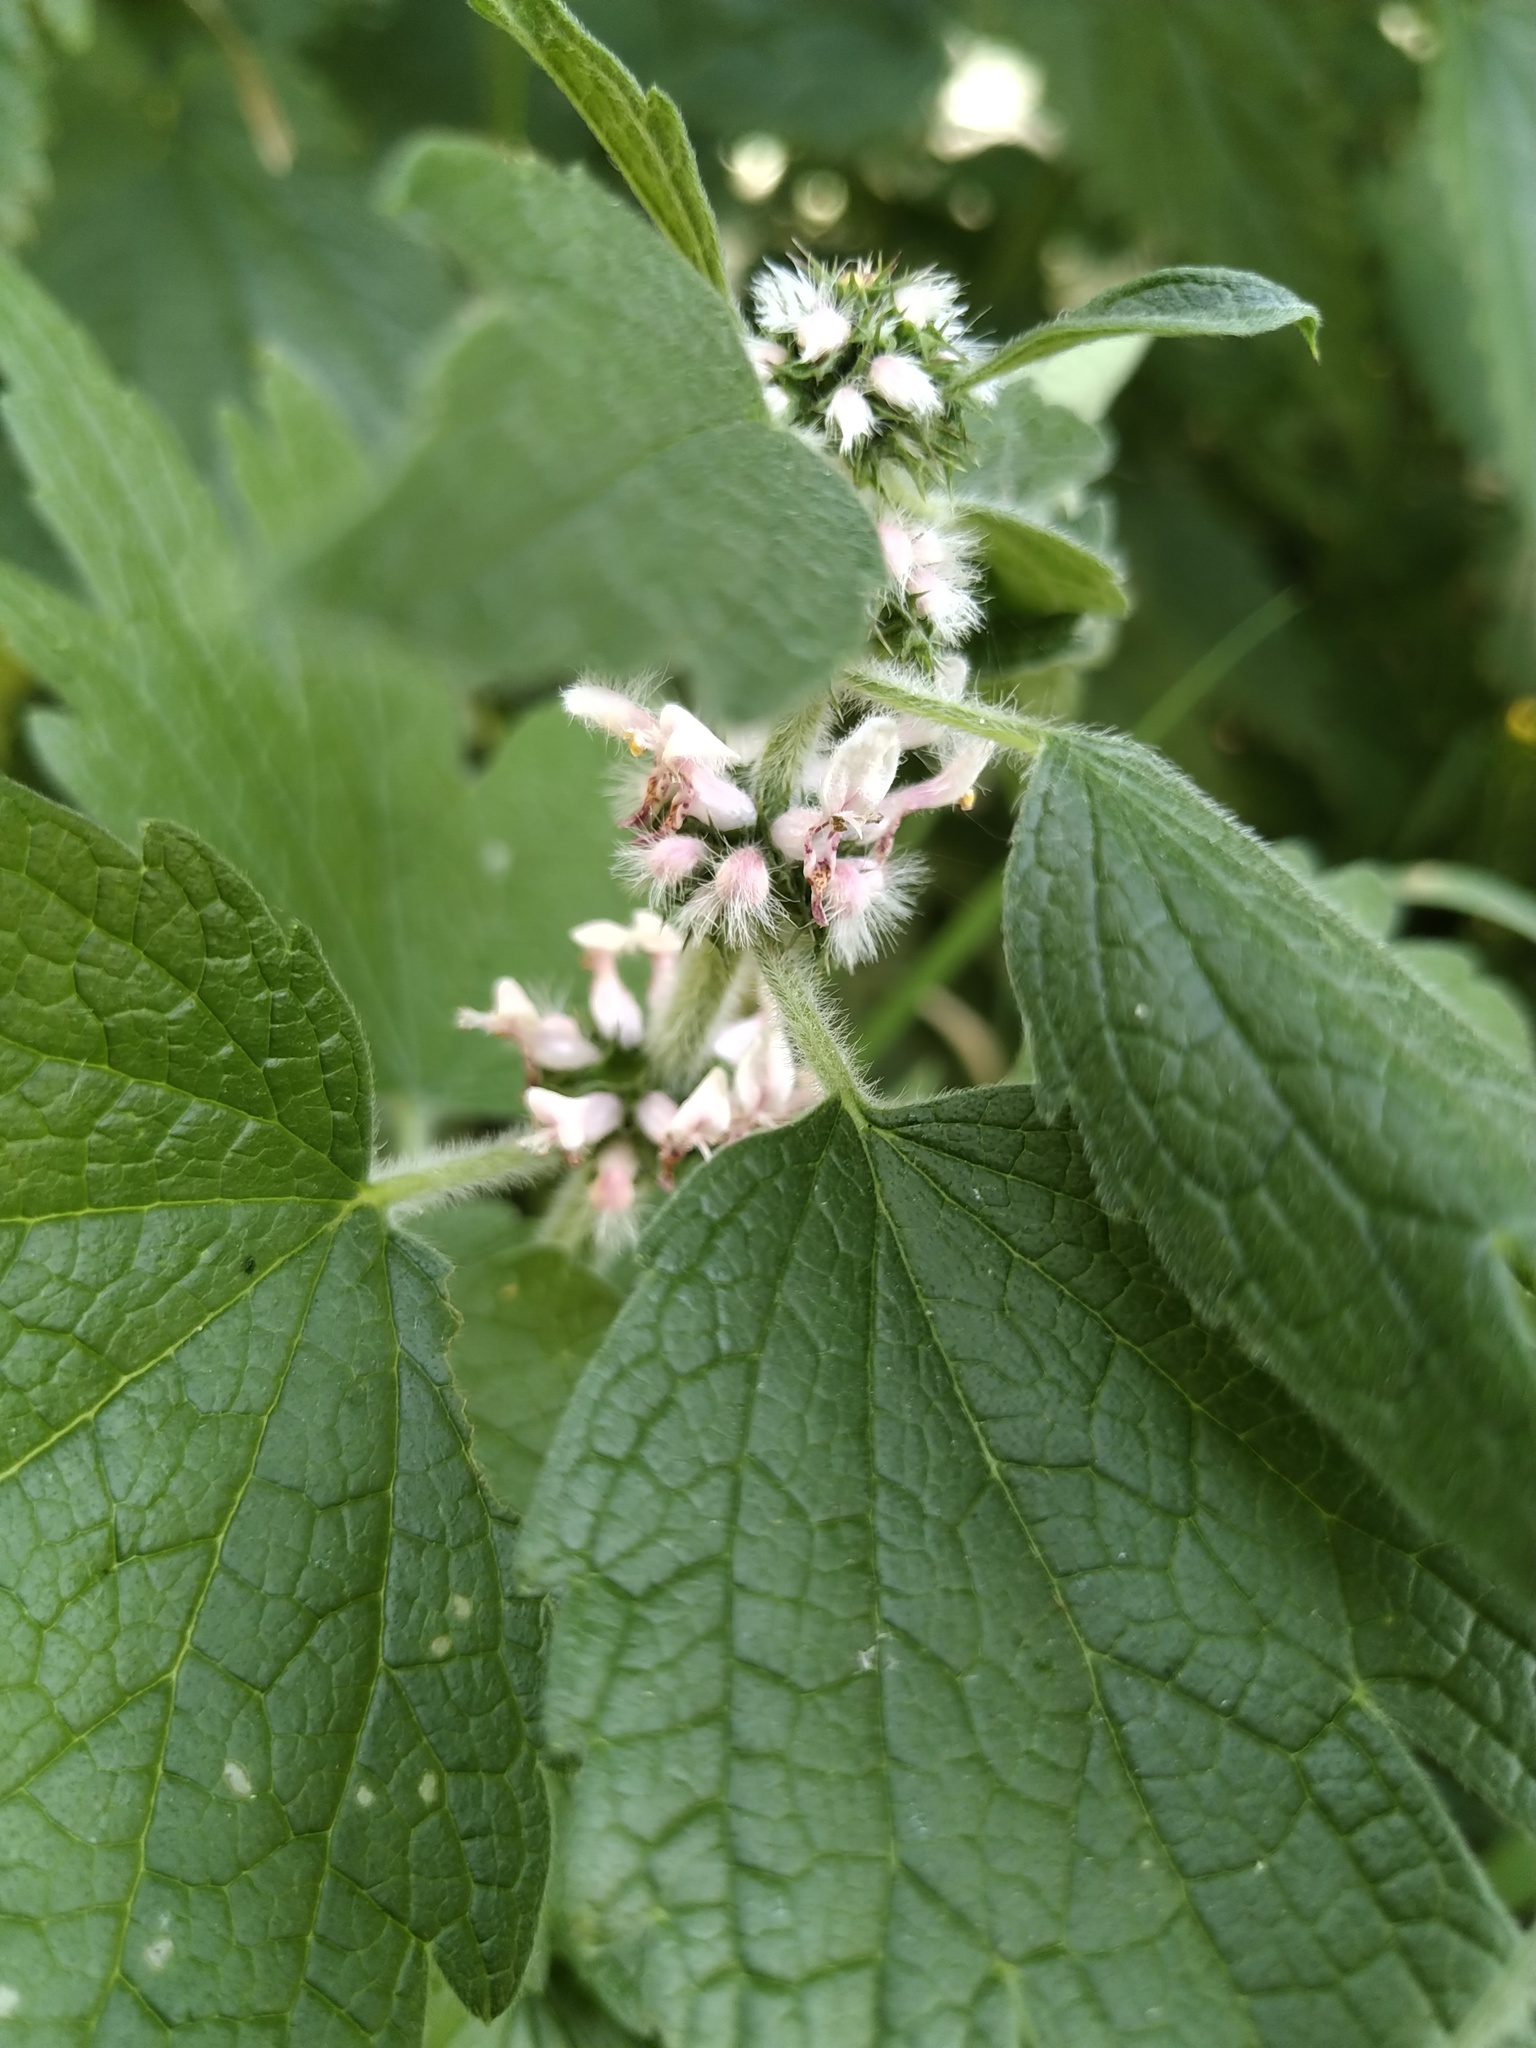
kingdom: Plantae
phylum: Tracheophyta
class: Magnoliopsida
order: Lamiales
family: Lamiaceae
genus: Leonurus
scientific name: Leonurus quinquelobatus
